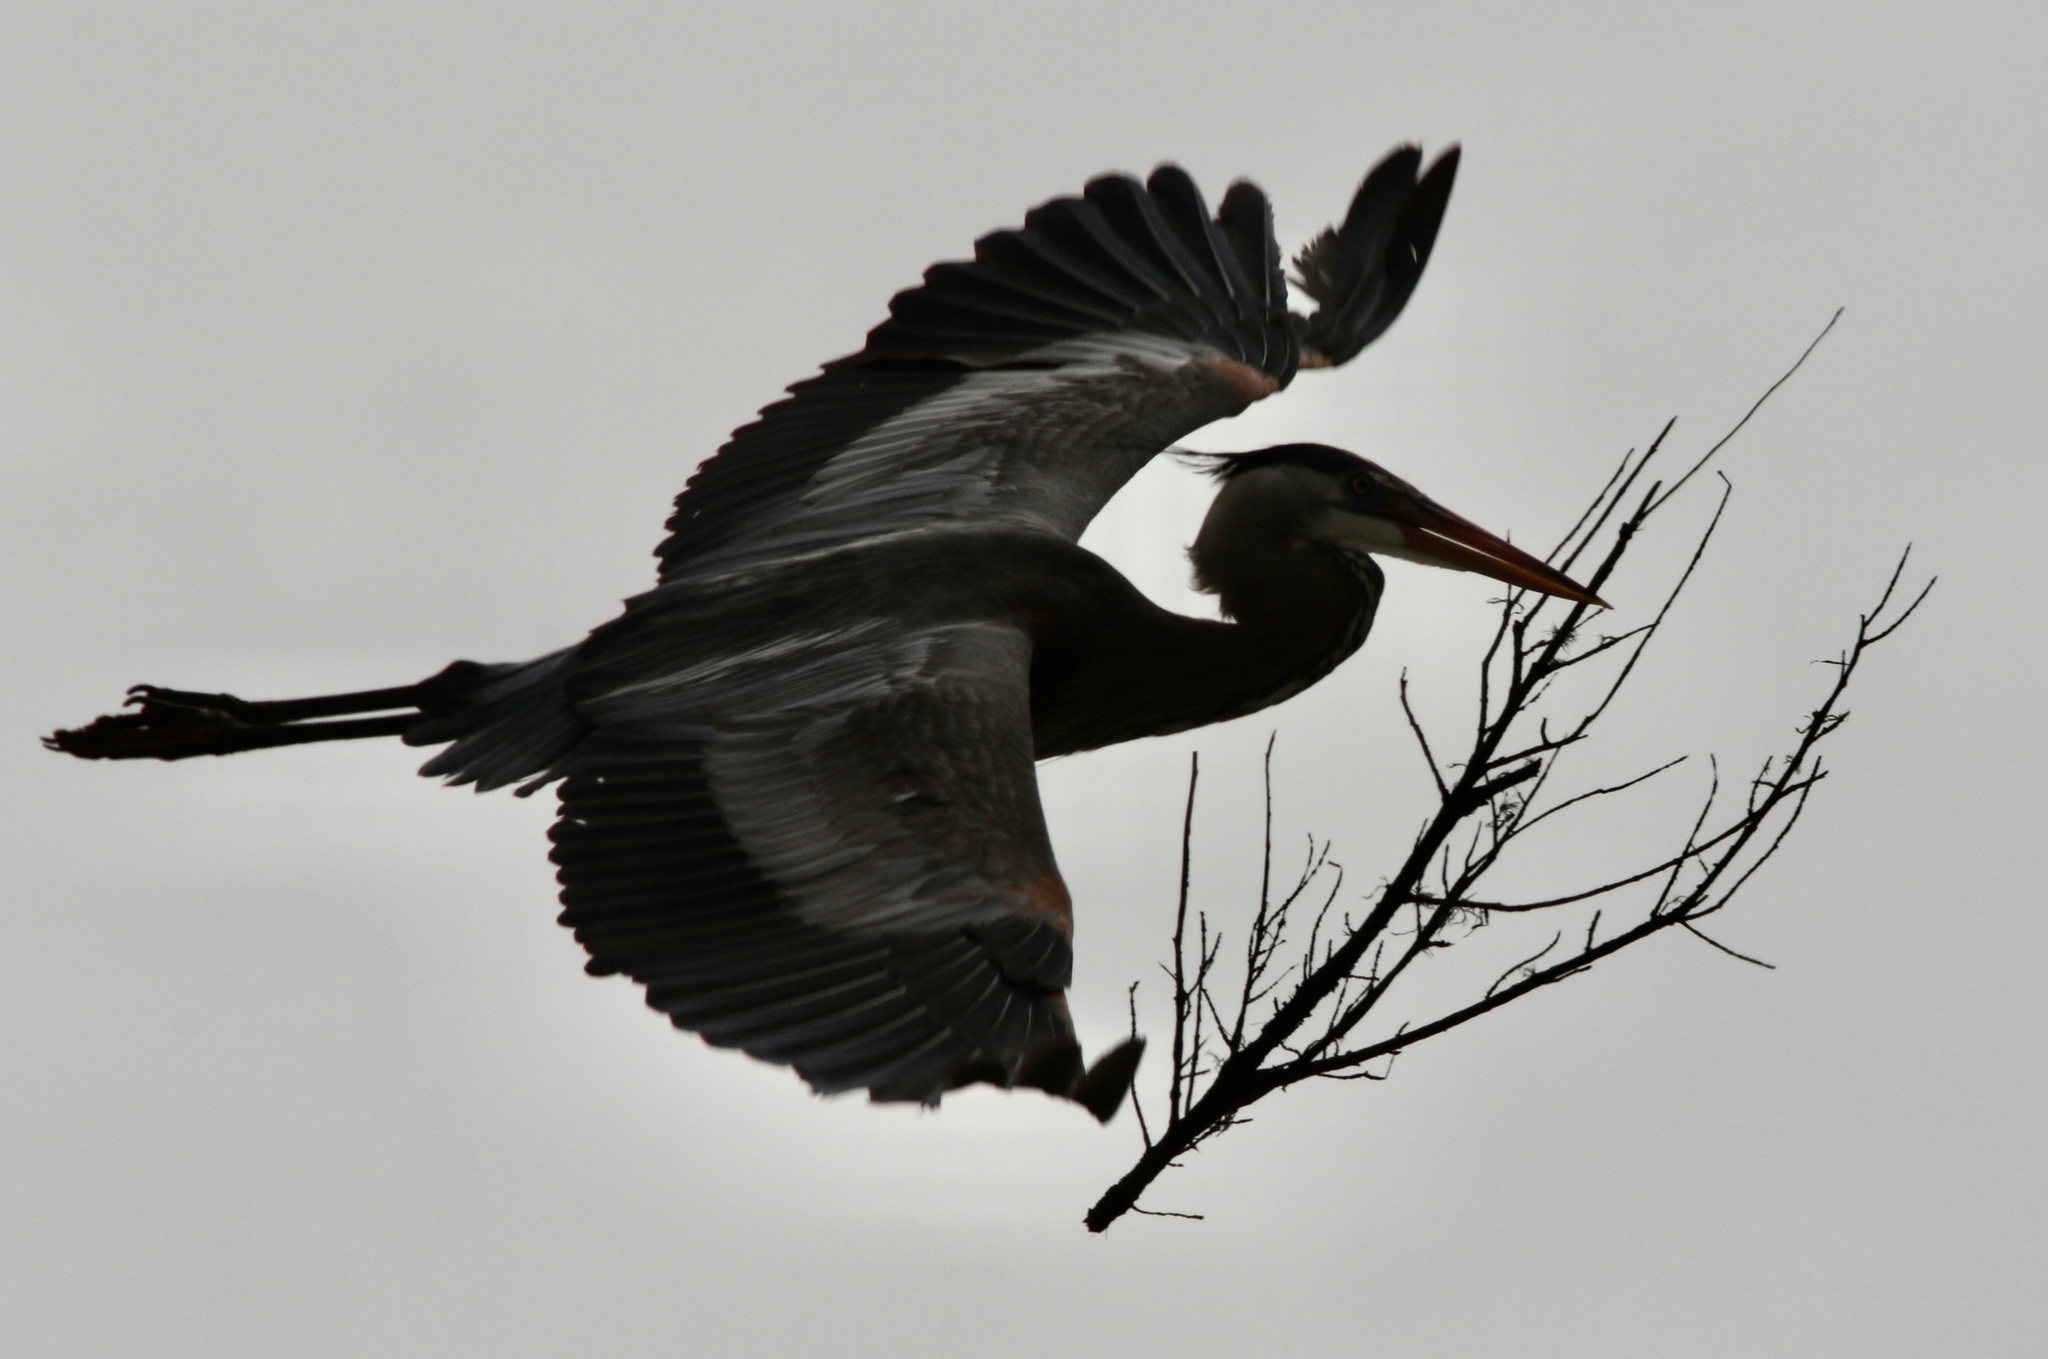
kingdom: Animalia
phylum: Chordata
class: Aves
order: Pelecaniformes
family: Ardeidae
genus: Ardea
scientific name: Ardea herodias
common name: Great blue heron
